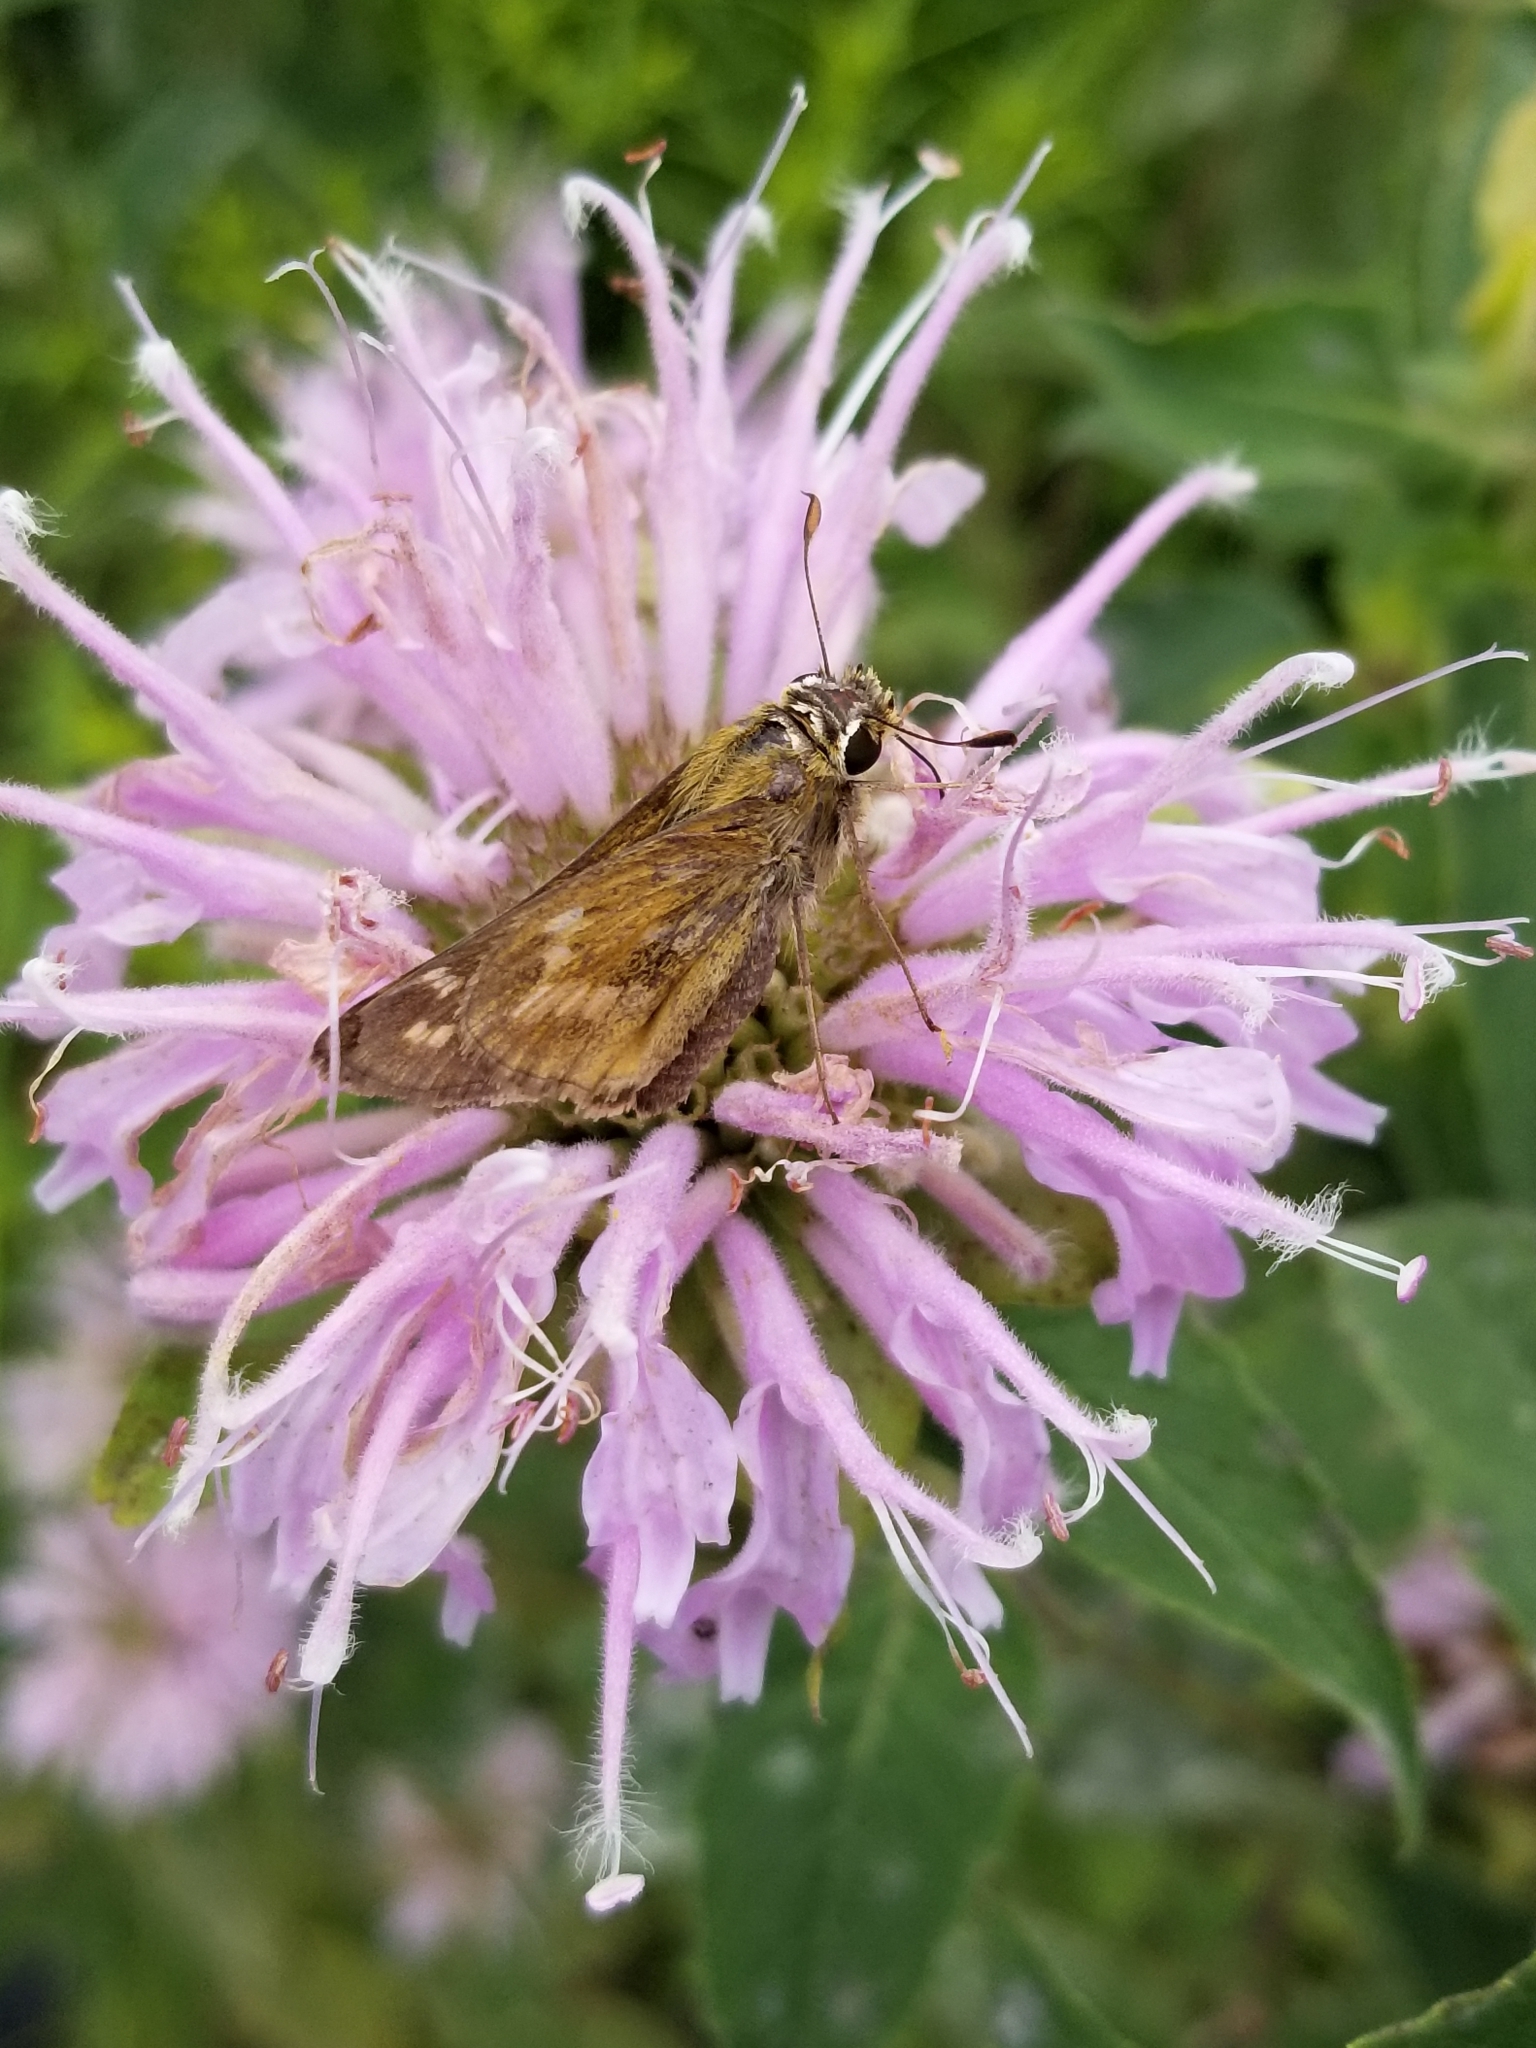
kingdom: Animalia
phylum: Arthropoda
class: Insecta
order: Lepidoptera
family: Hesperiidae
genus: Atalopedes
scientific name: Atalopedes
